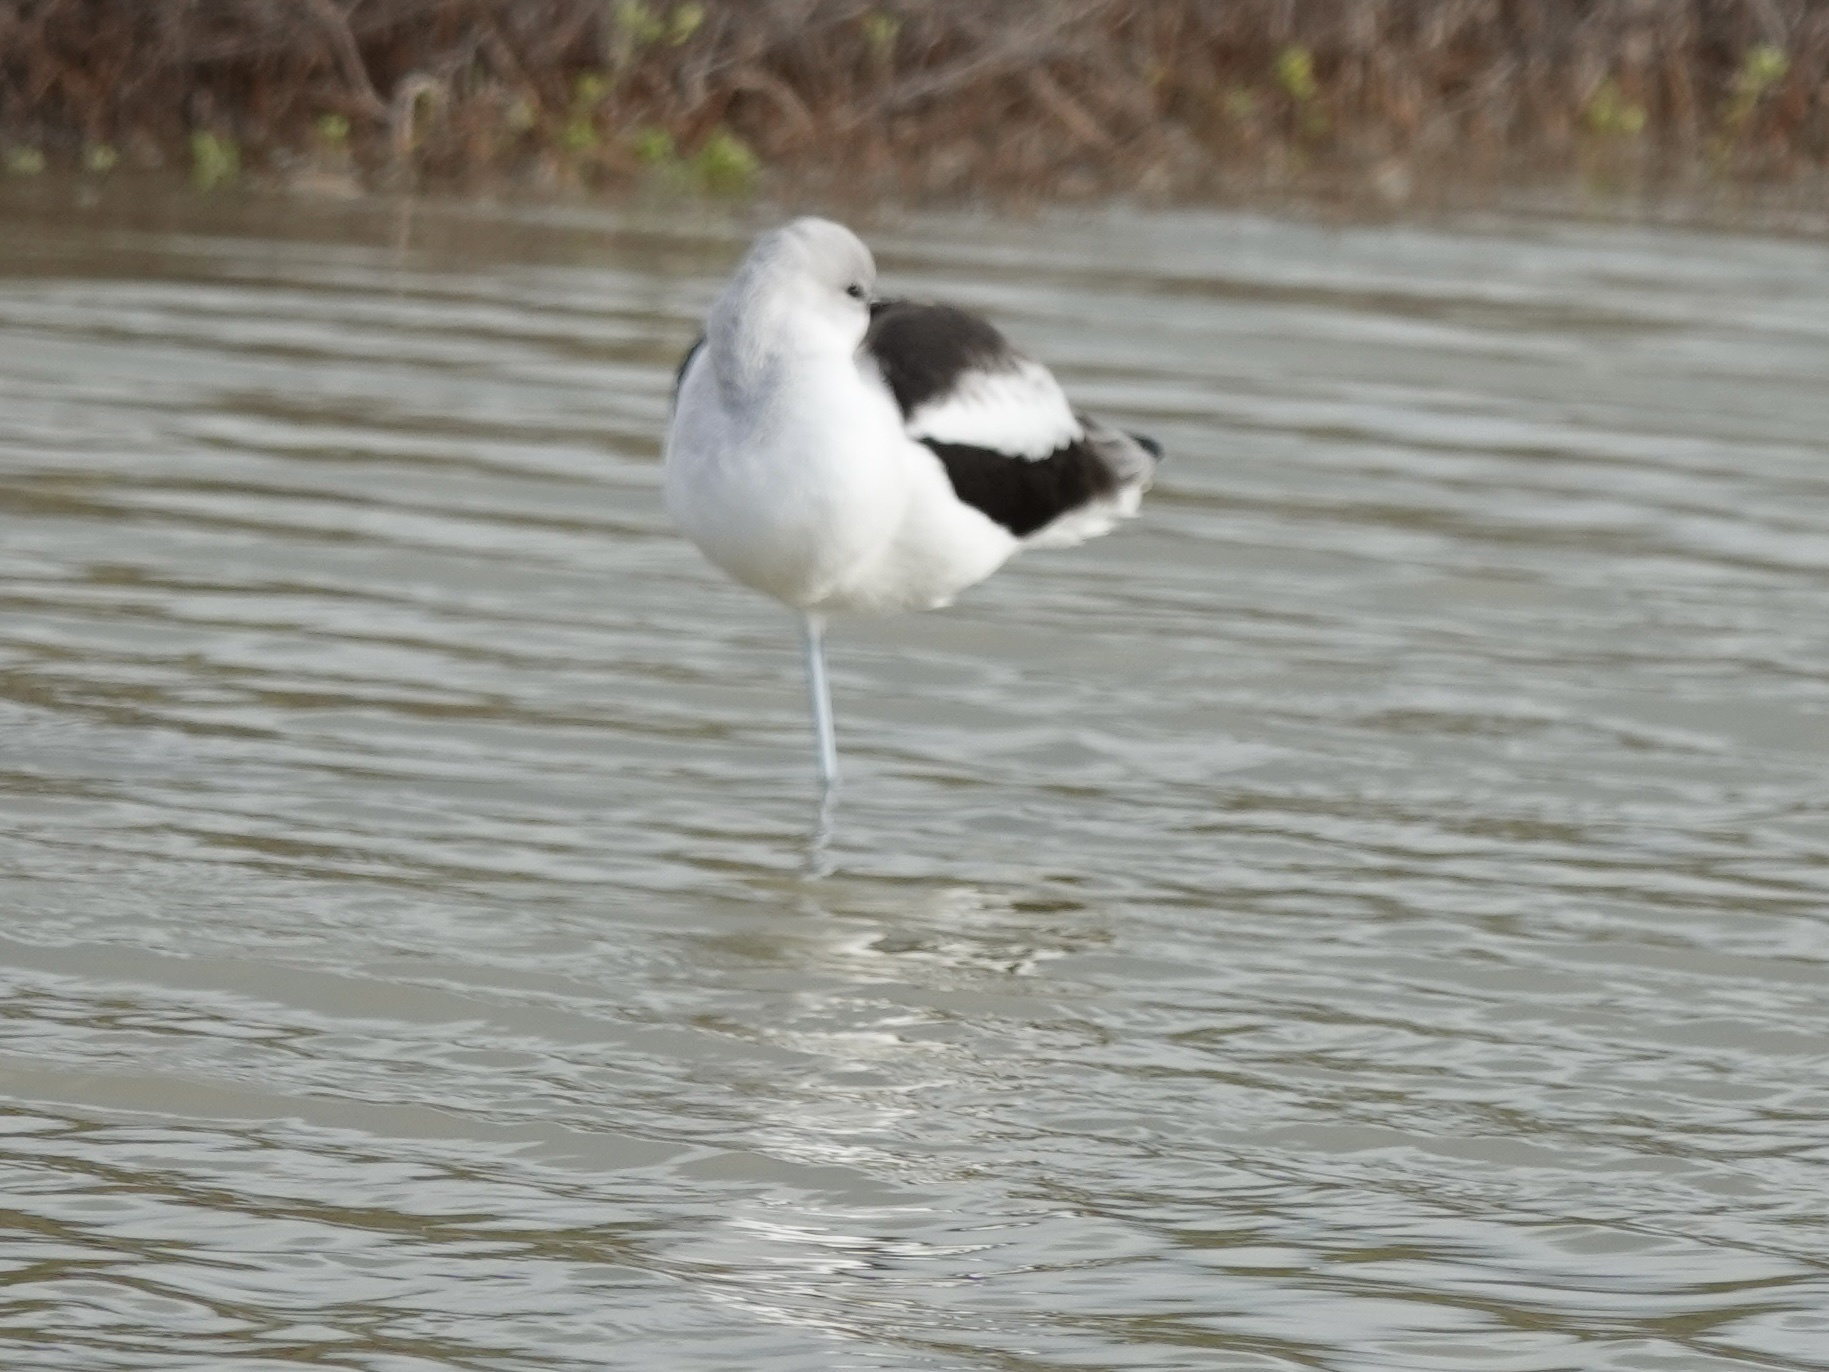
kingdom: Animalia
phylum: Chordata
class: Aves
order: Charadriiformes
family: Recurvirostridae
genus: Recurvirostra
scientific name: Recurvirostra americana
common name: American avocet
